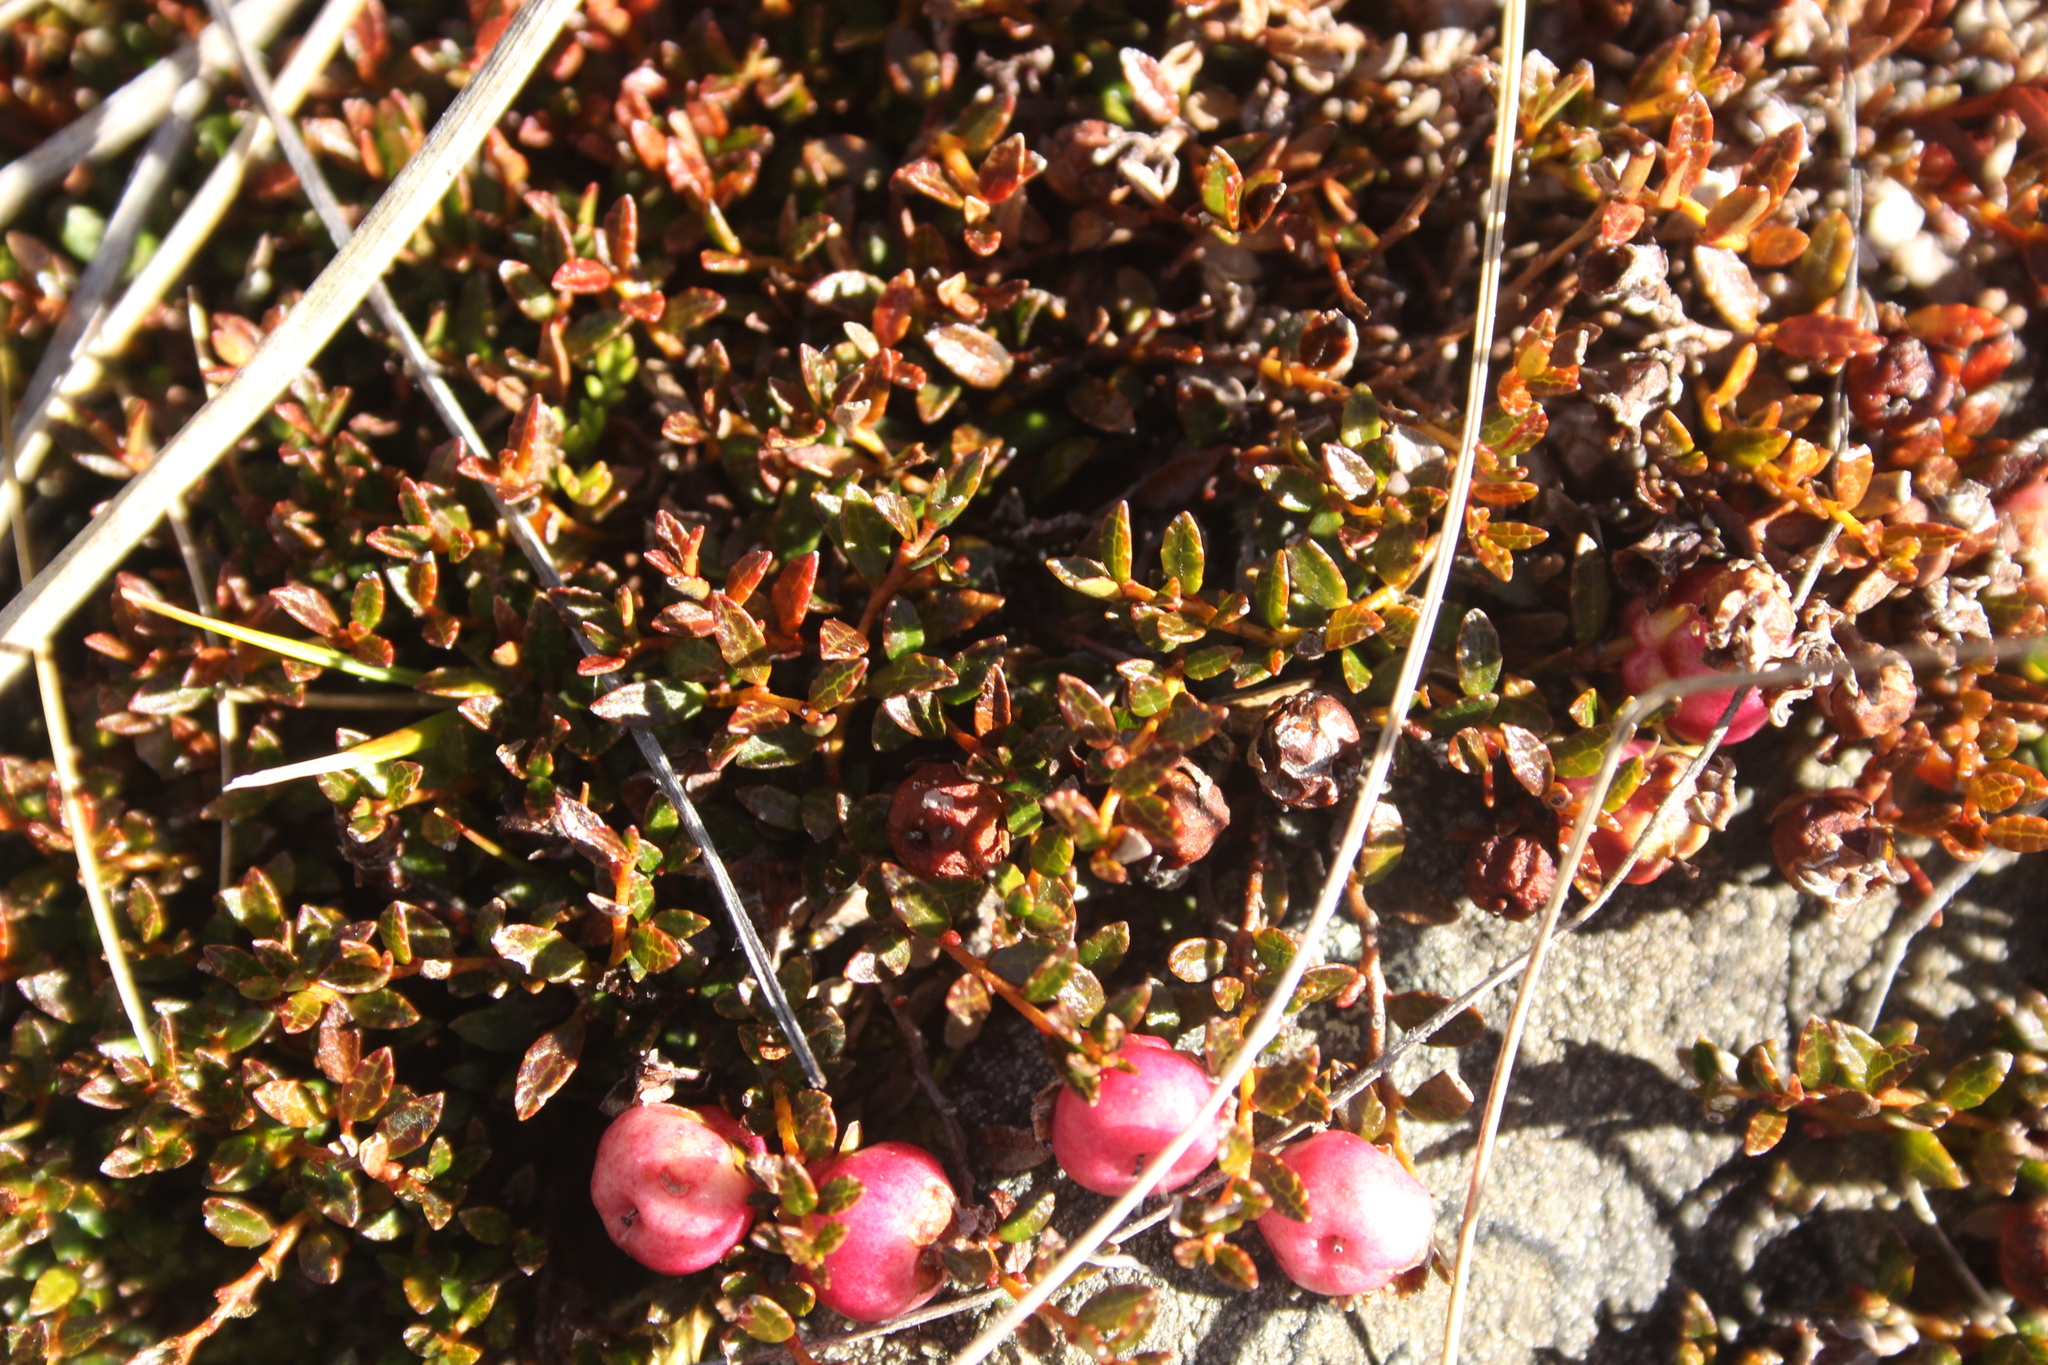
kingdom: Plantae
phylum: Tracheophyta
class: Magnoliopsida
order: Ericales
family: Ericaceae
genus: Gaultheria
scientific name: Gaultheria parvula
